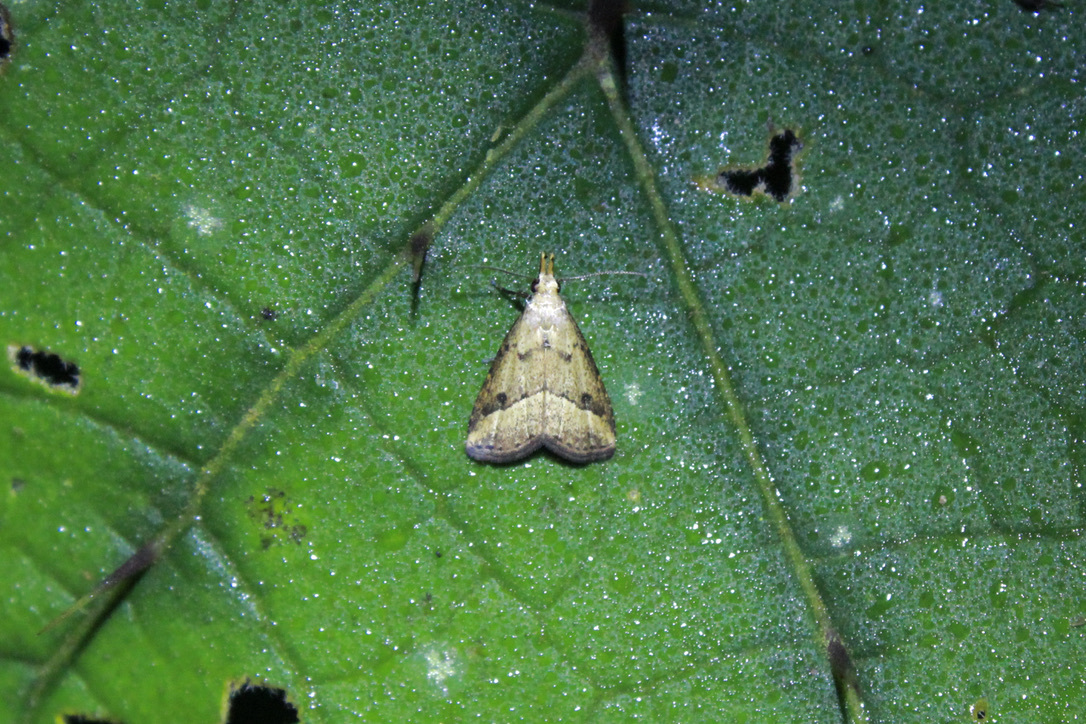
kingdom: Animalia
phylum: Arthropoda
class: Insecta
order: Lepidoptera
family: Erebidae
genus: Schrankia
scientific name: Schrankia
